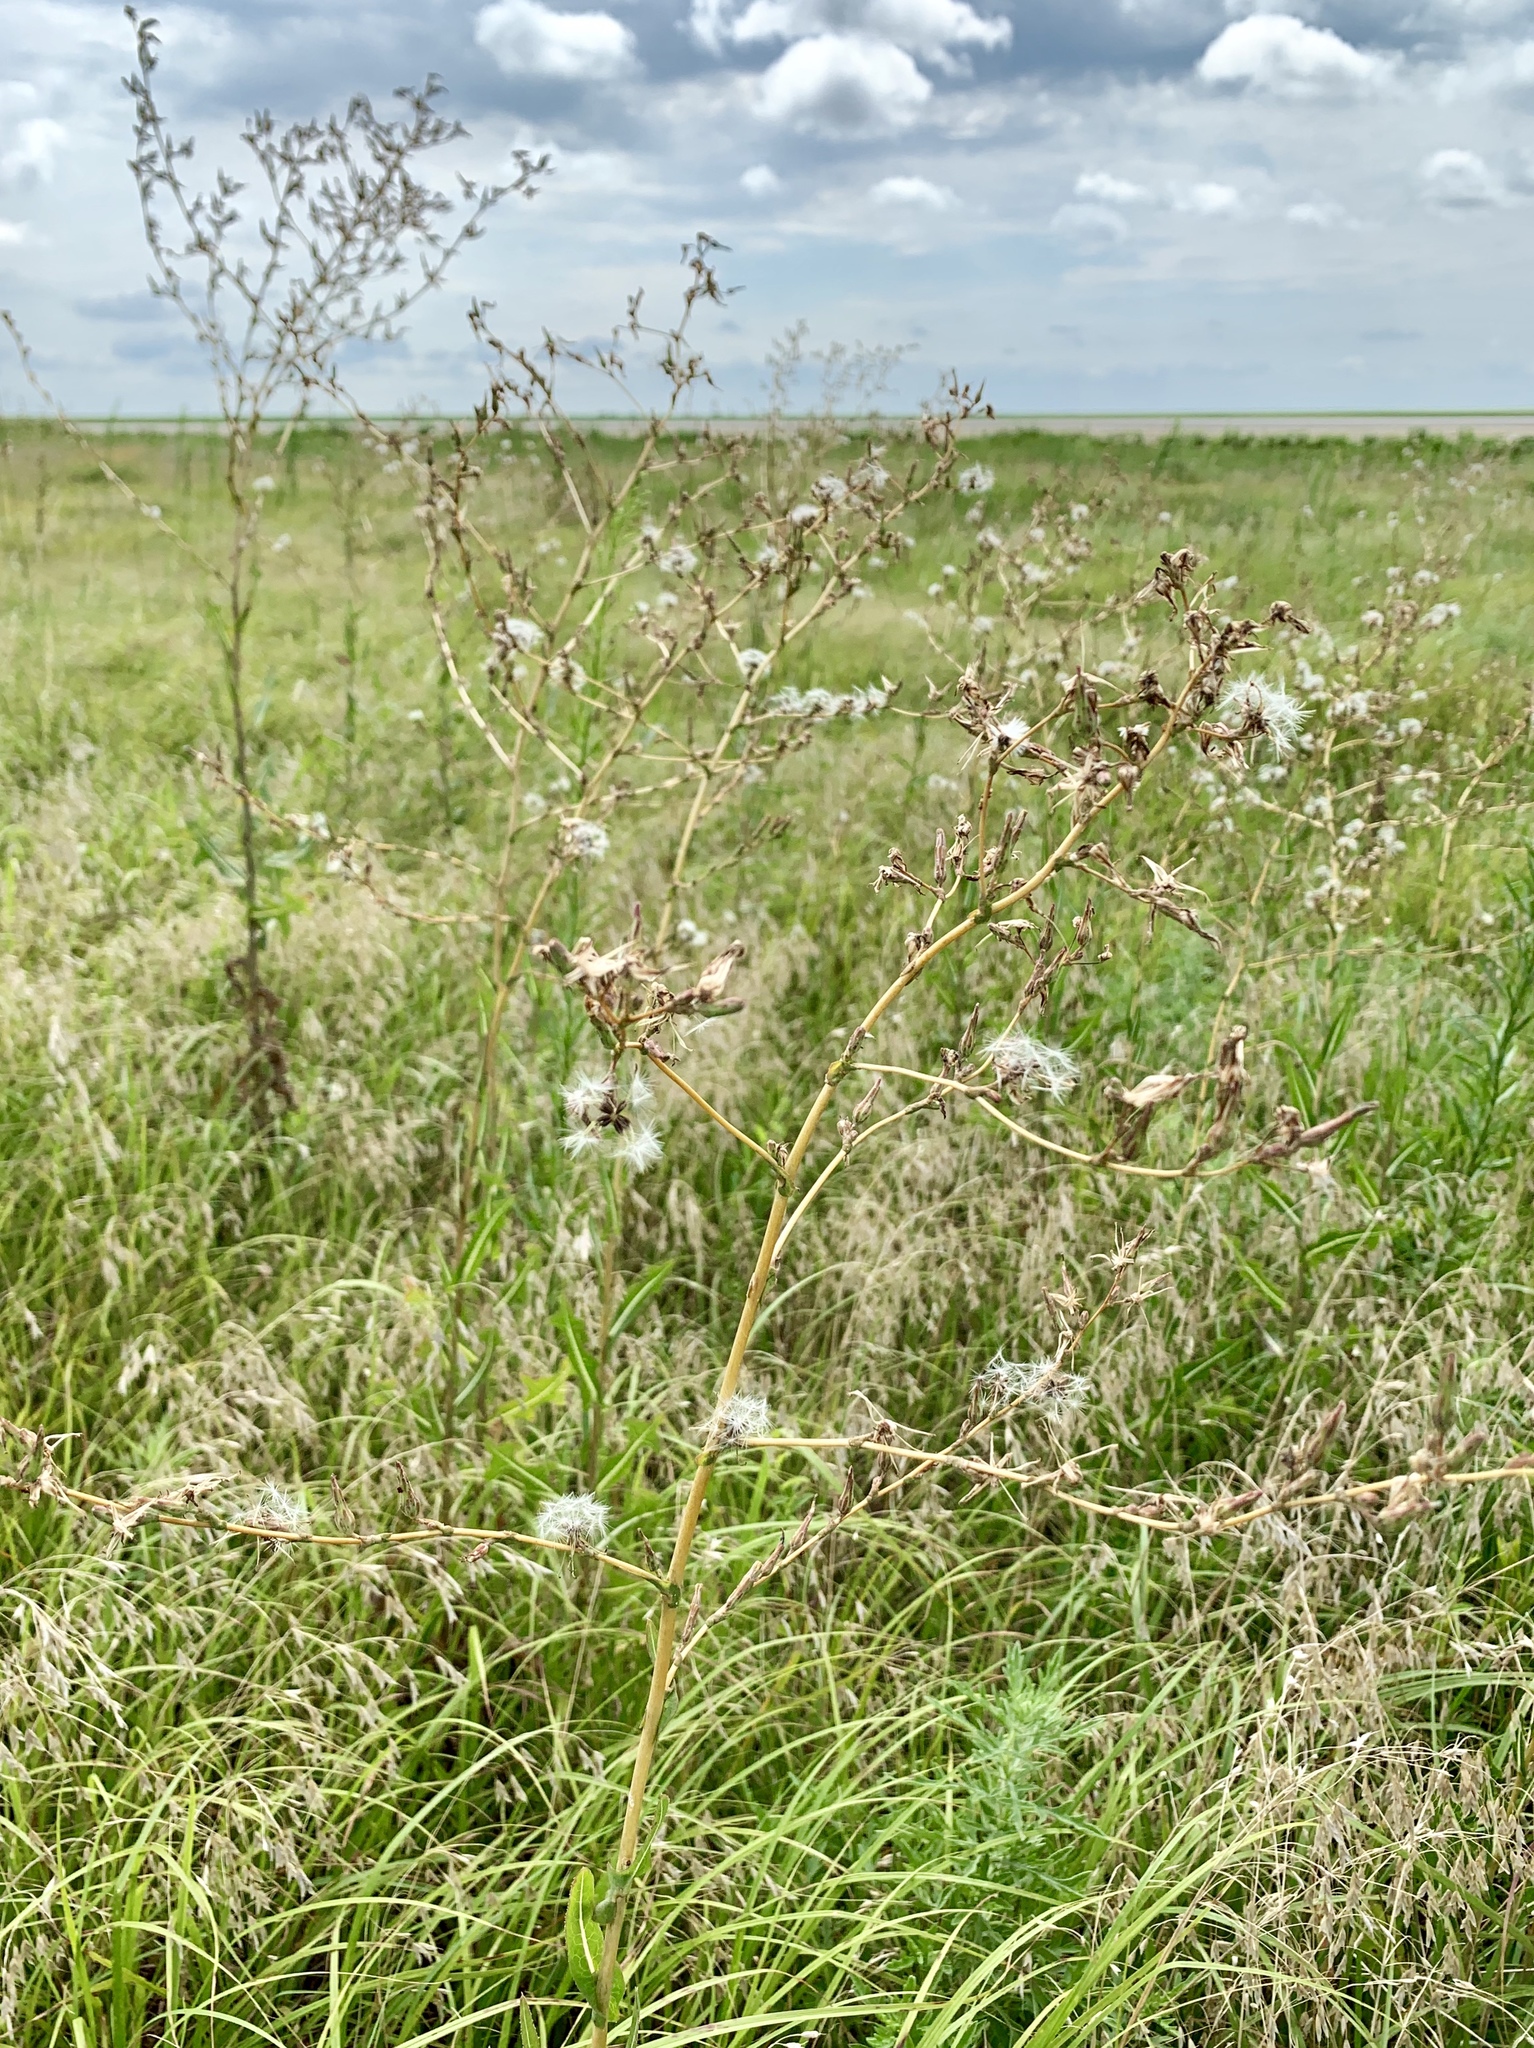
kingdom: Plantae
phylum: Tracheophyta
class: Magnoliopsida
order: Asterales
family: Asteraceae
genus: Lactuca
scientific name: Lactuca serriola
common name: Prickly lettuce
